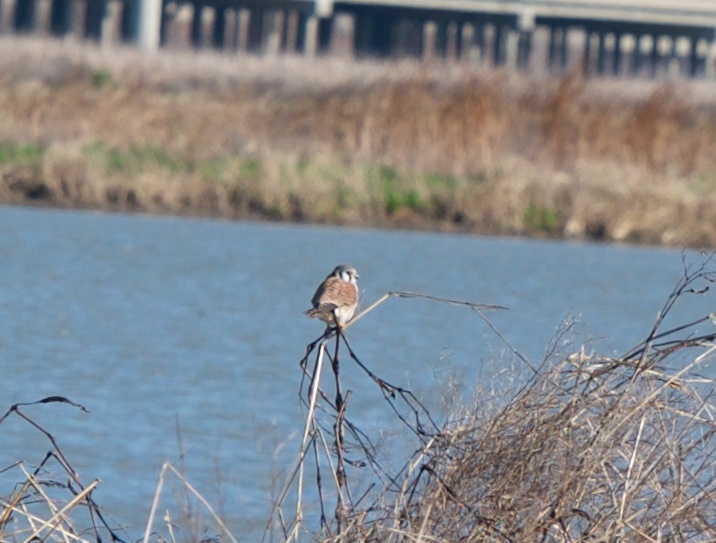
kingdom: Animalia
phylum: Chordata
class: Aves
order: Falconiformes
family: Falconidae
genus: Falco
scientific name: Falco sparverius
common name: American kestrel
